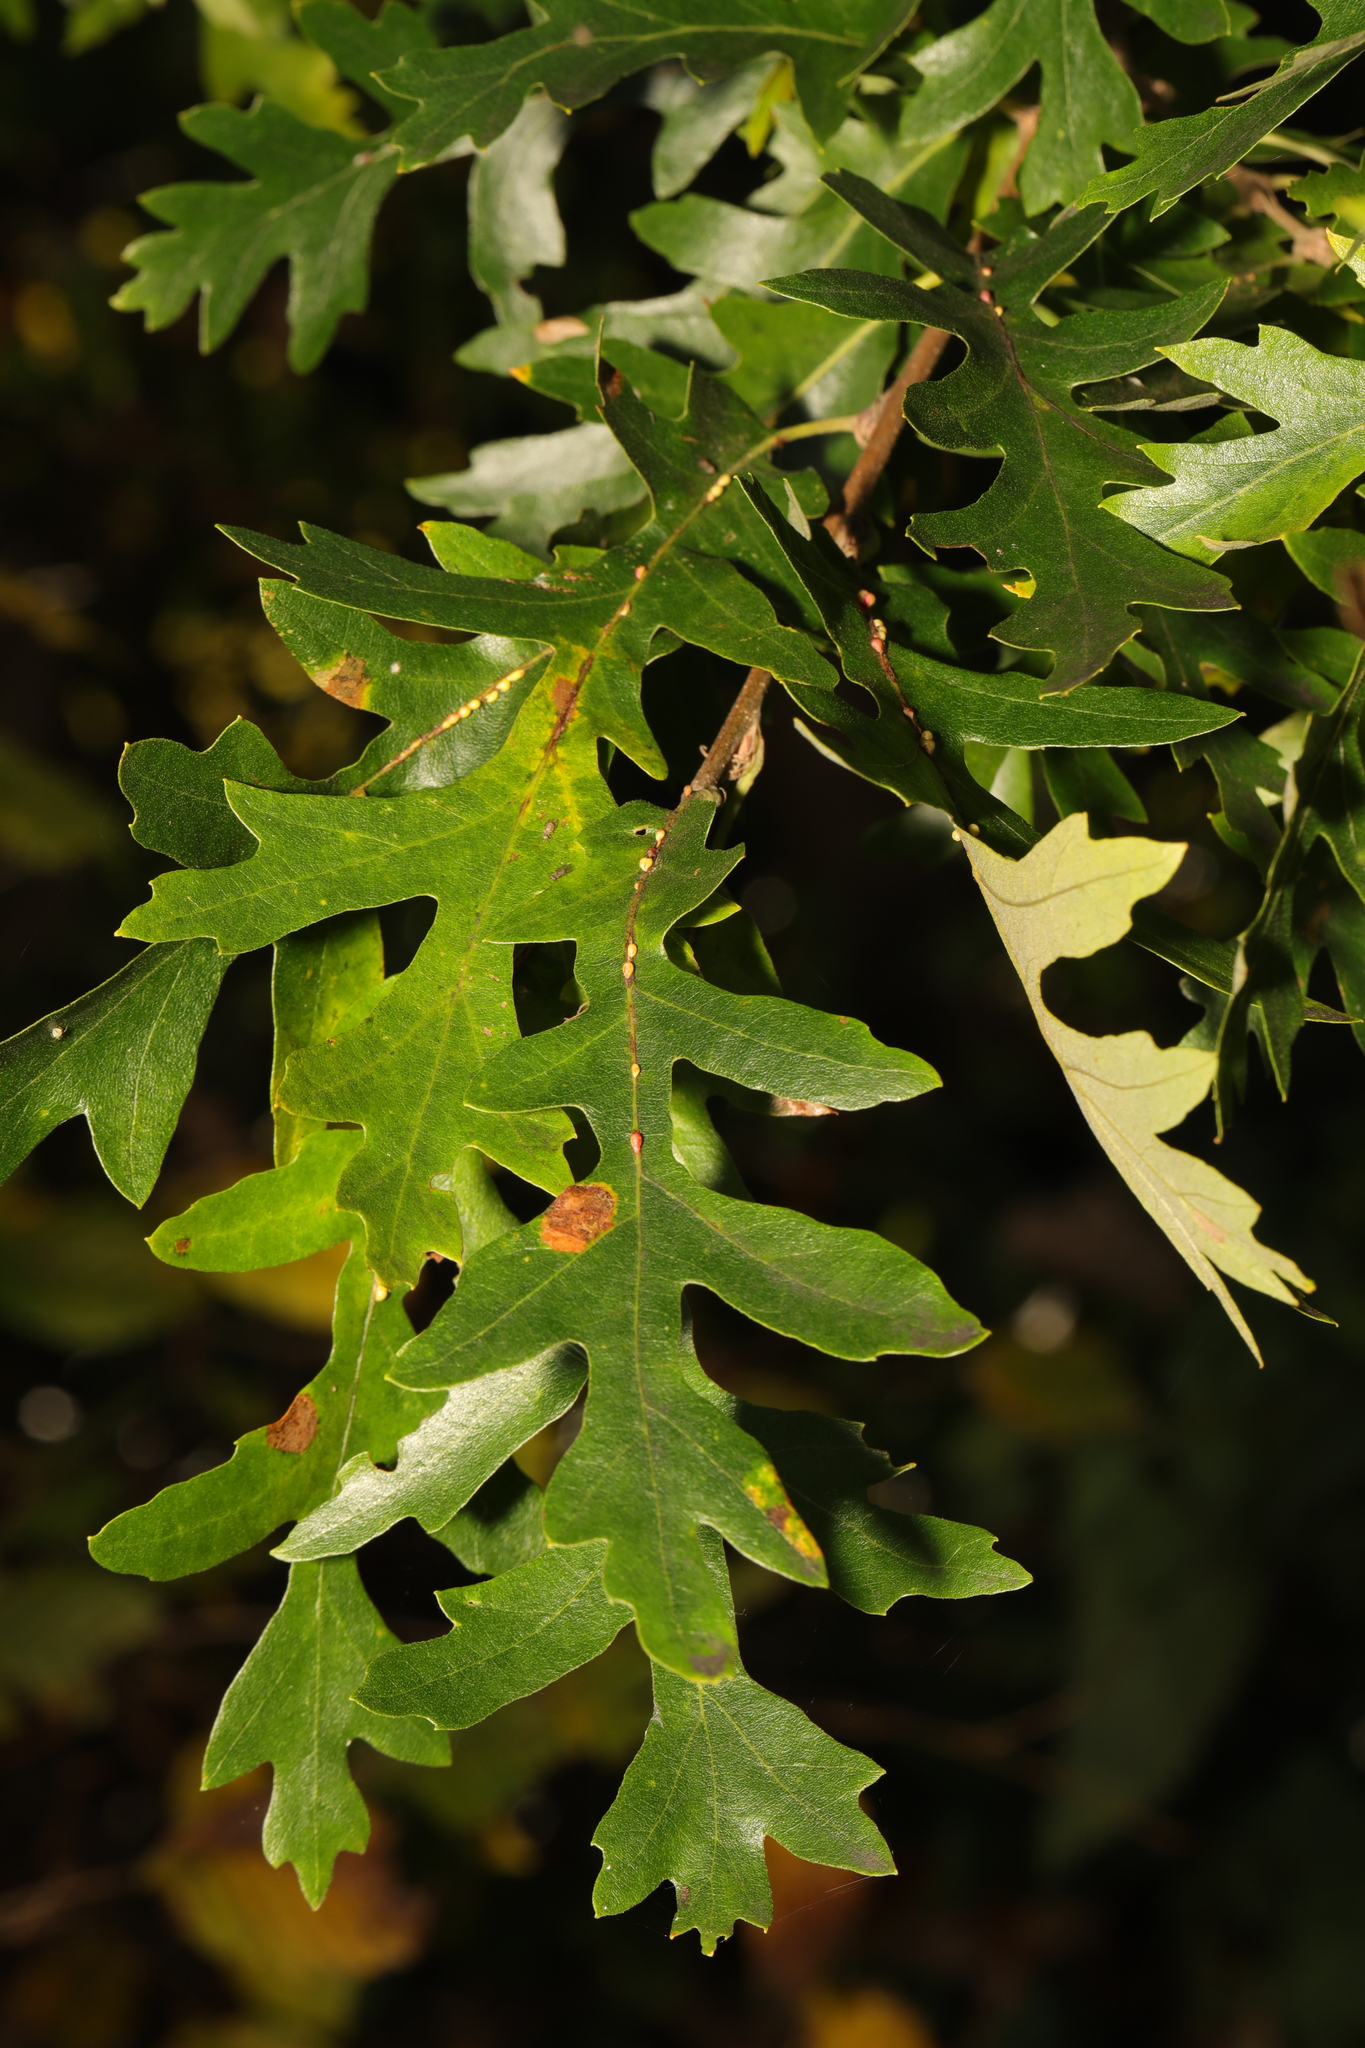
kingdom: Plantae
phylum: Tracheophyta
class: Magnoliopsida
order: Fagales
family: Fagaceae
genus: Quercus
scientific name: Quercus cerris
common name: Turkey oak
